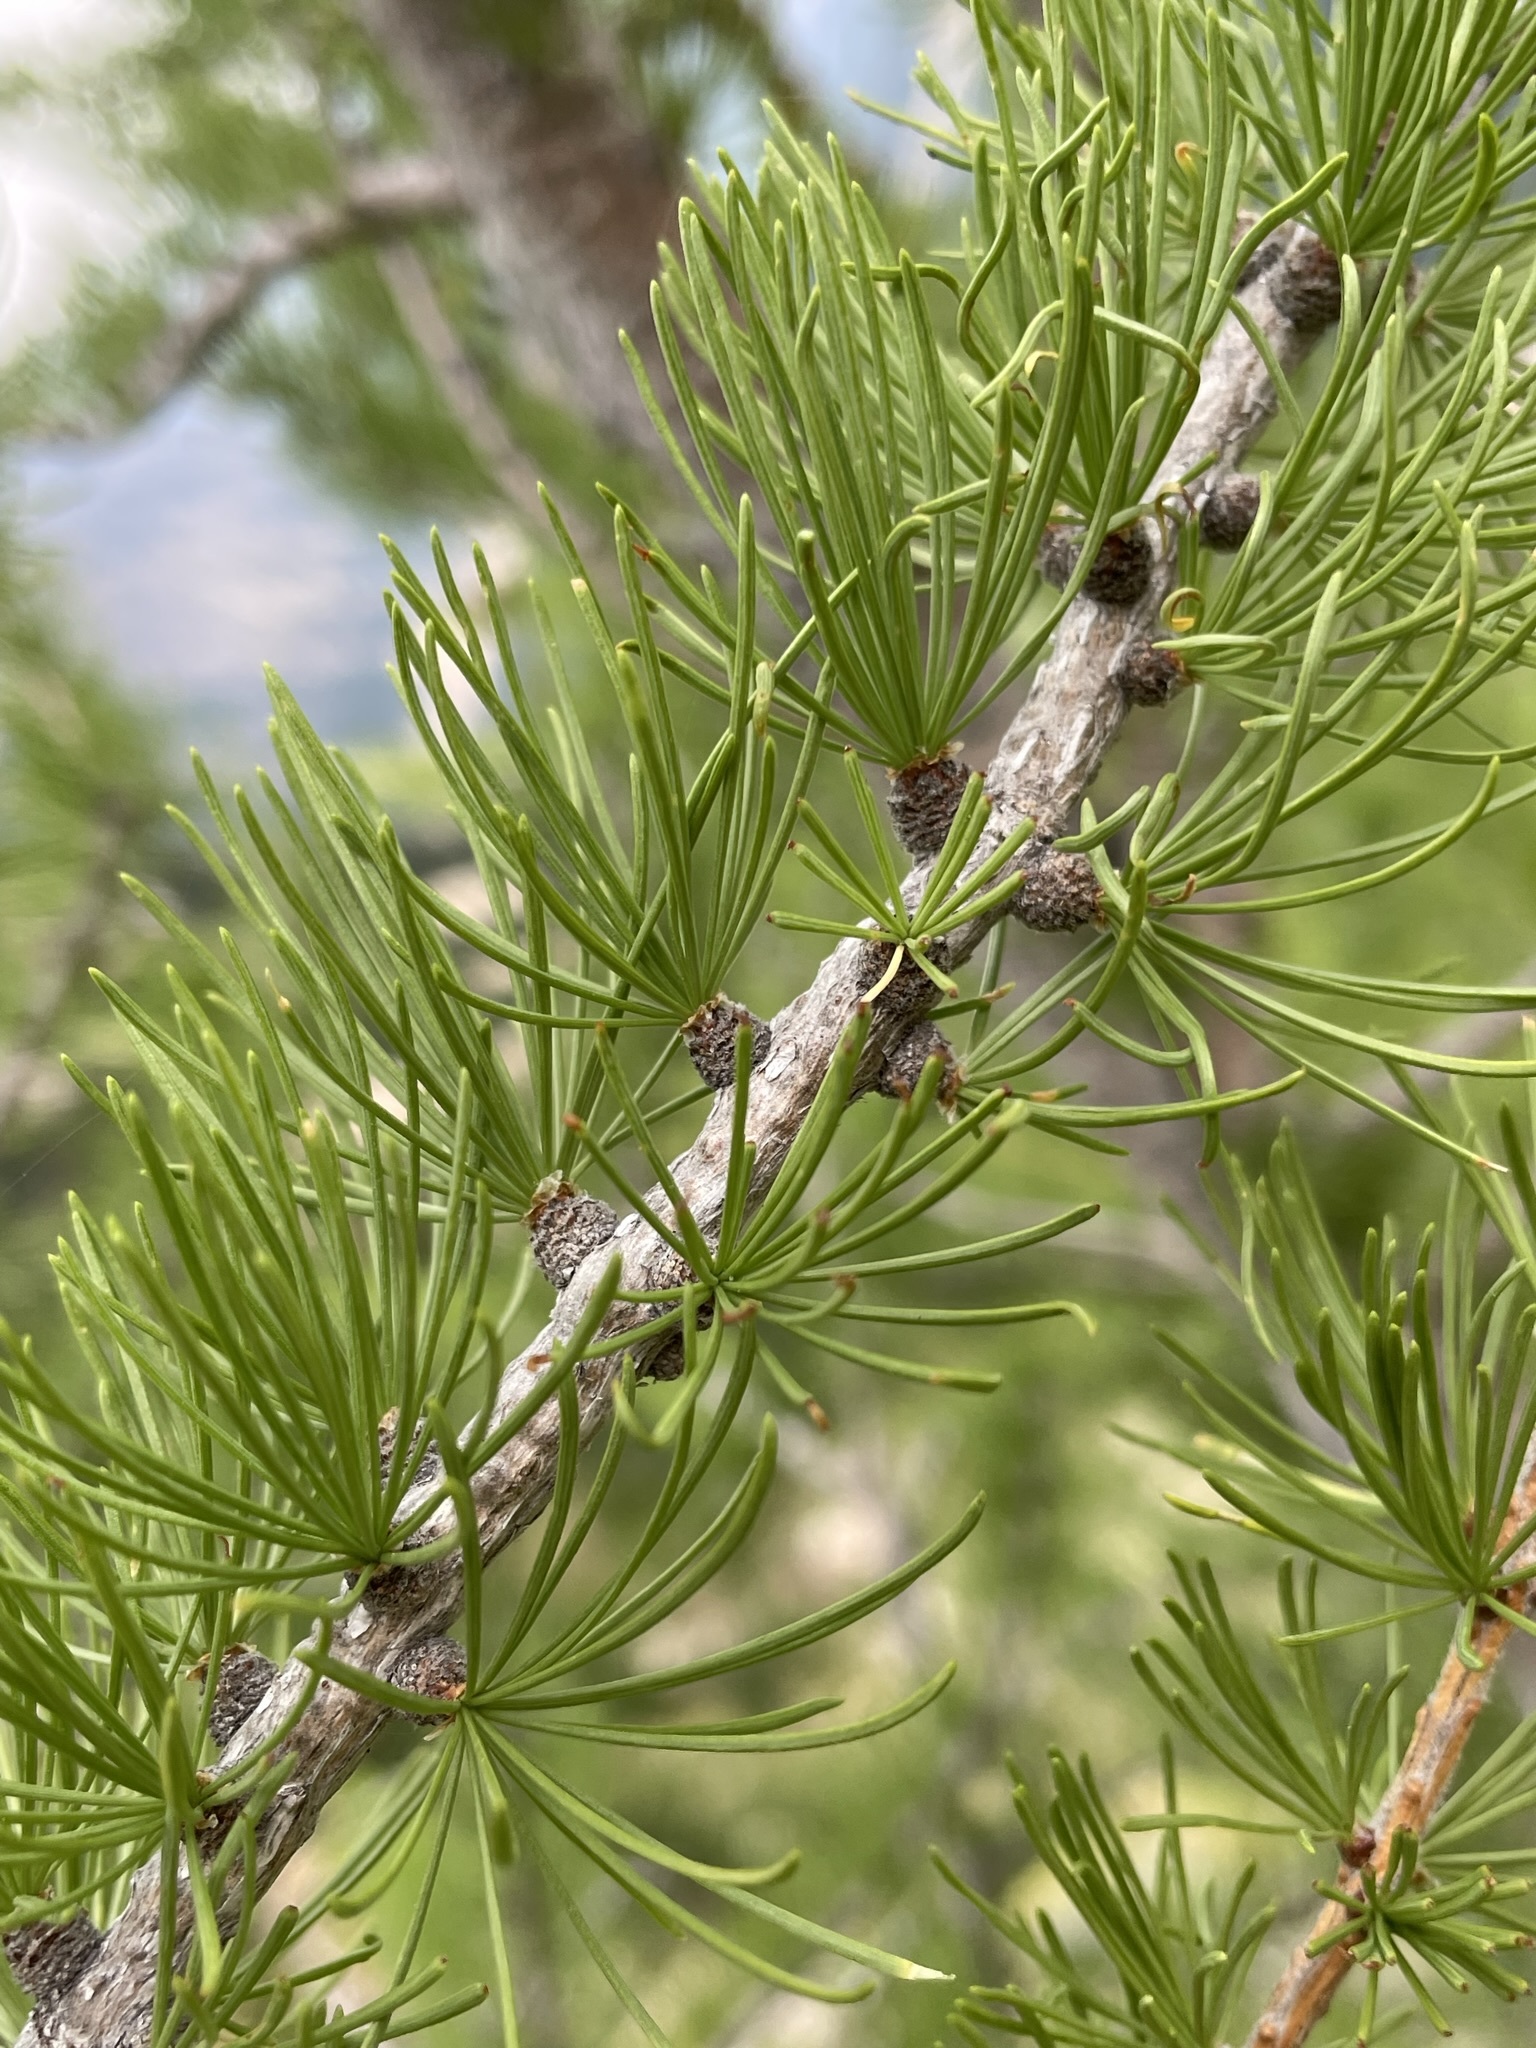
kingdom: Plantae
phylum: Tracheophyta
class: Pinopsida
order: Pinales
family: Pinaceae
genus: Larix
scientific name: Larix lyallii
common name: Alpine larch
